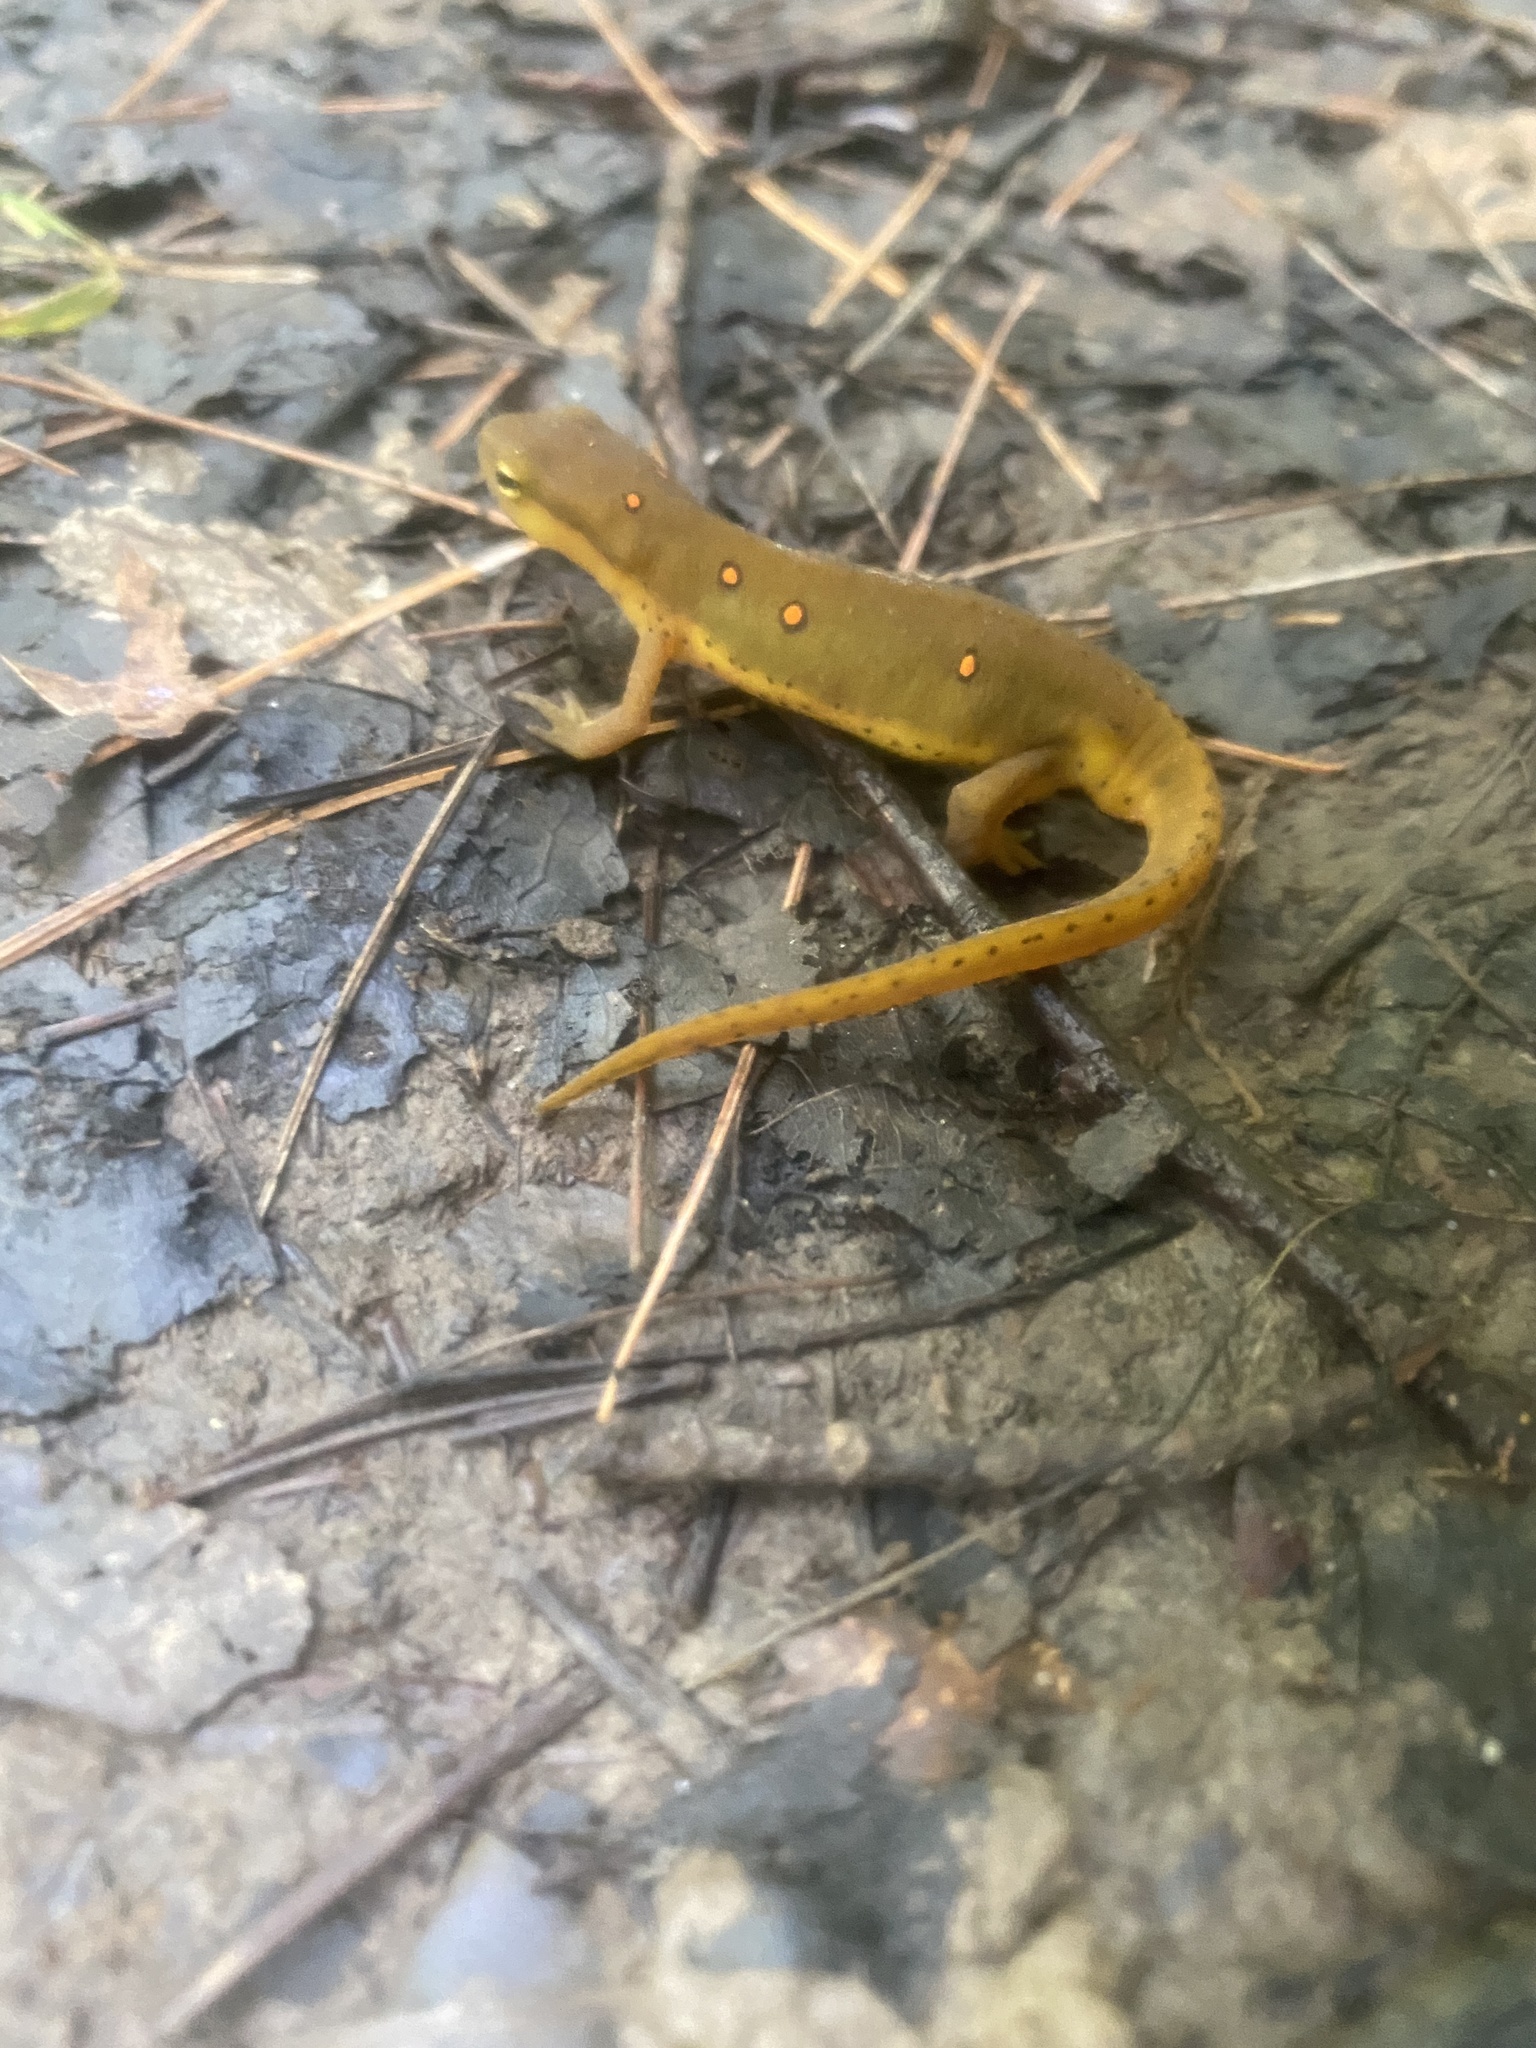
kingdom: Animalia
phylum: Chordata
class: Amphibia
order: Caudata
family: Salamandridae
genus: Notophthalmus
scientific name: Notophthalmus viridescens
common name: Eastern newt
